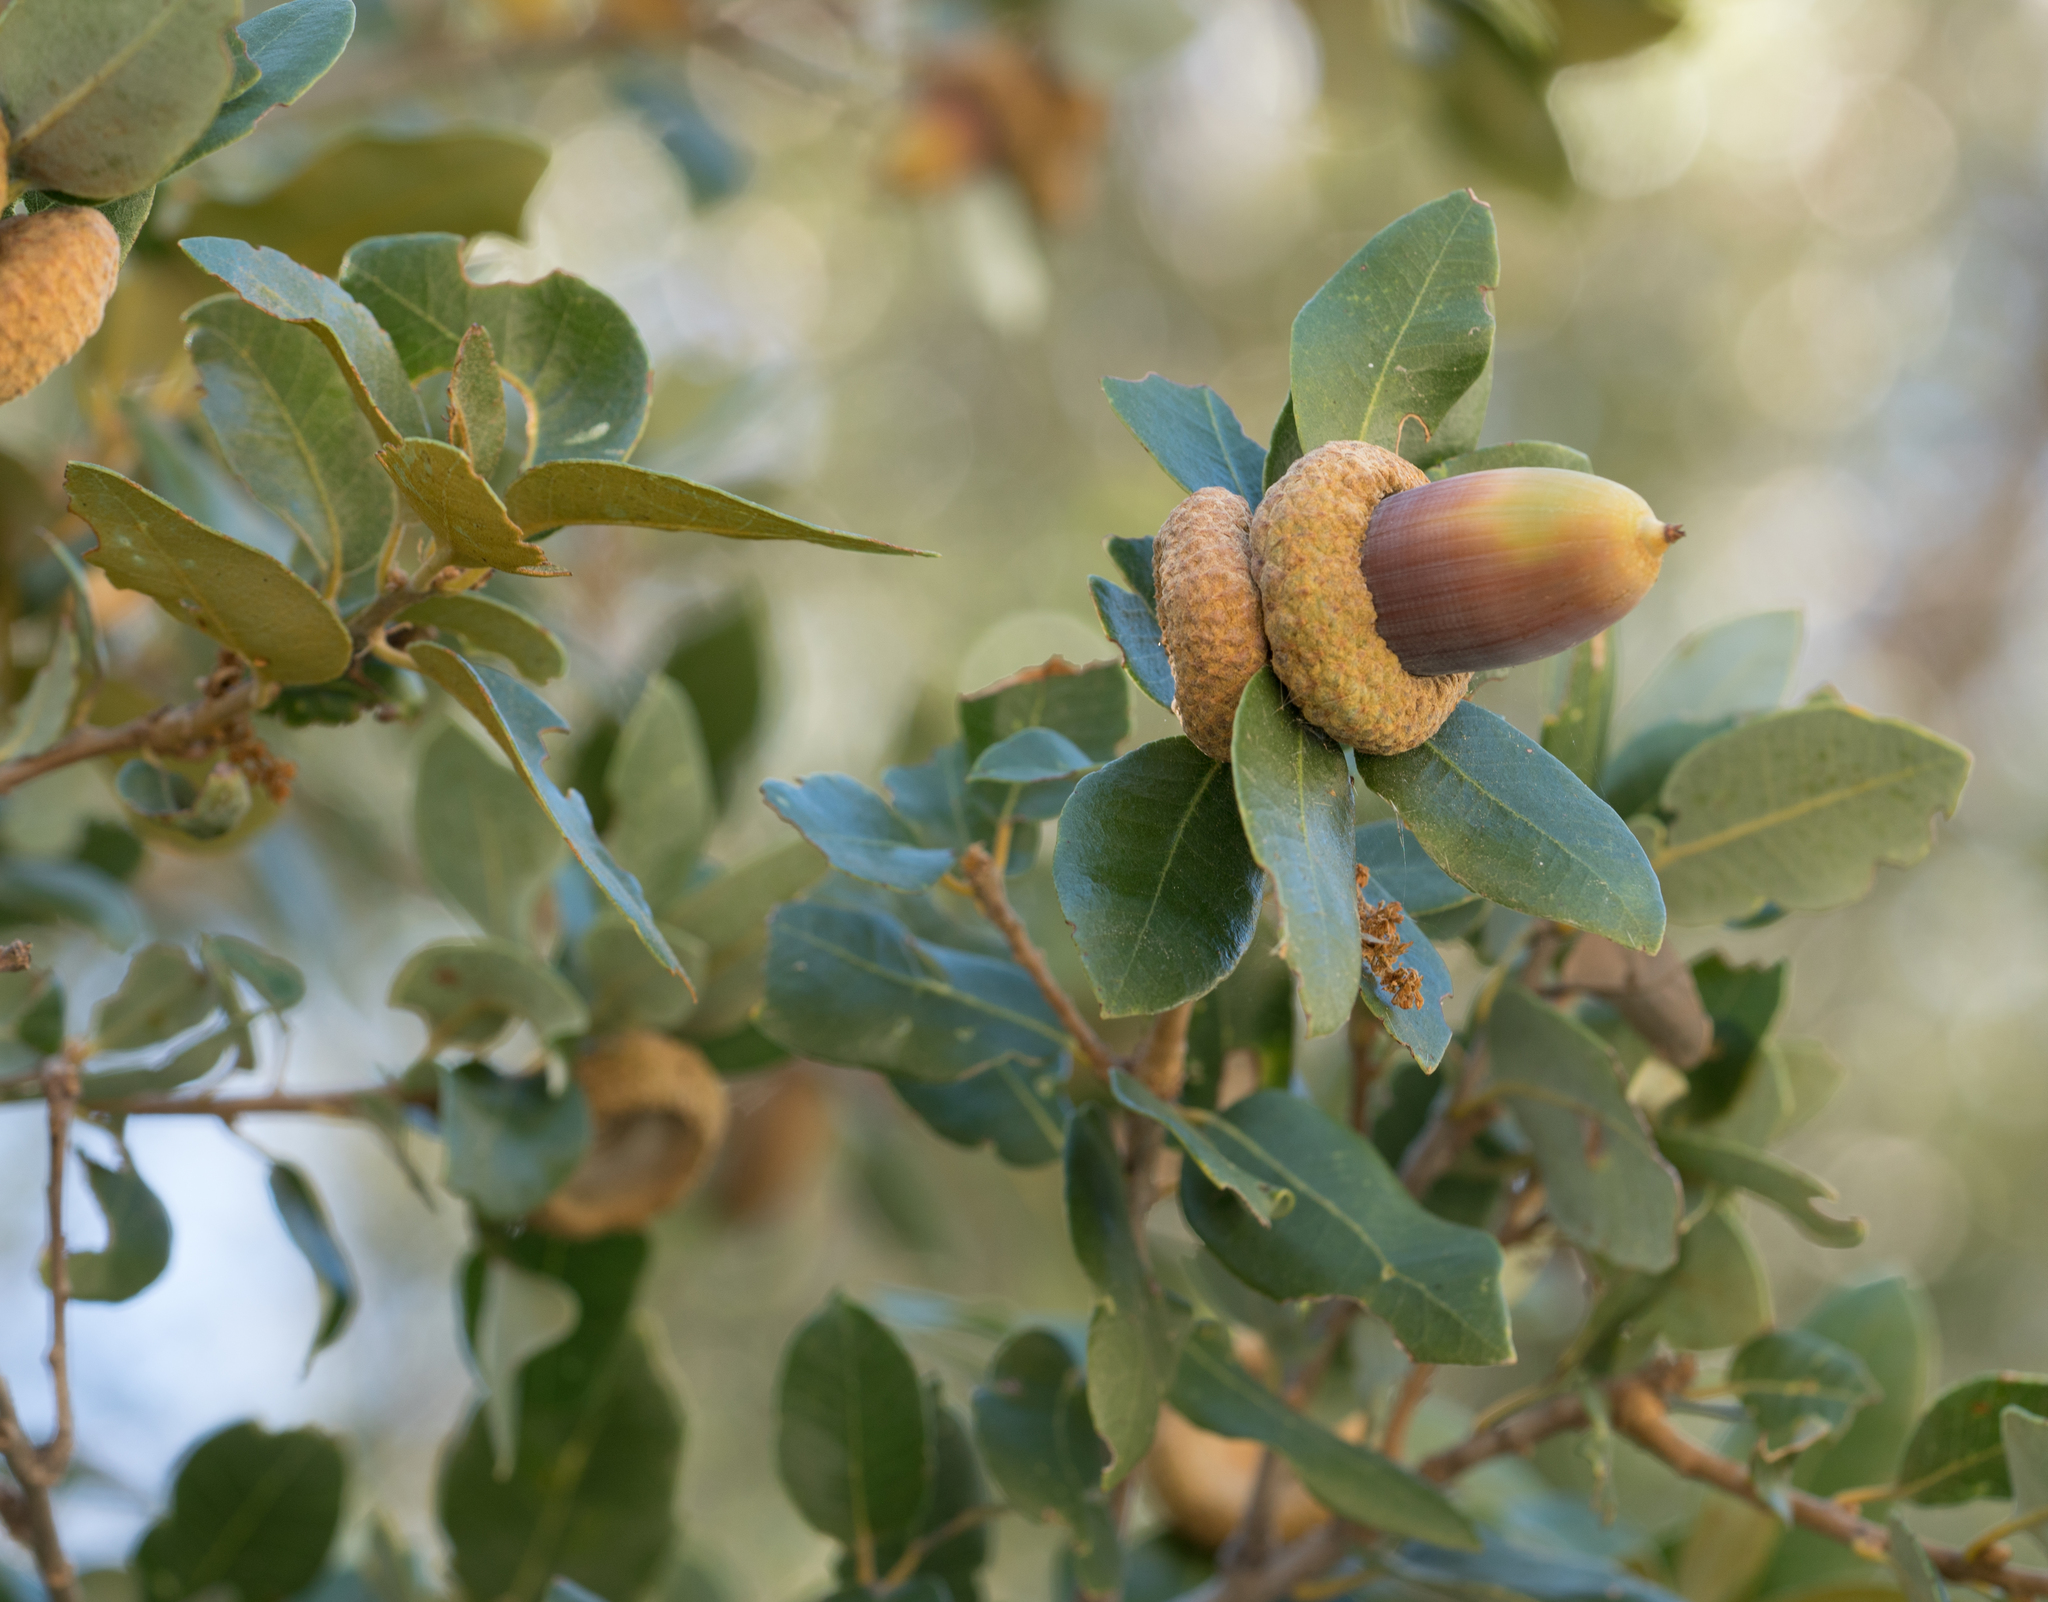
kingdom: Plantae
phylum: Tracheophyta
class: Magnoliopsida
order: Fagales
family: Fagaceae
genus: Quercus
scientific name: Quercus chrysolepis
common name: Canyon live oak
